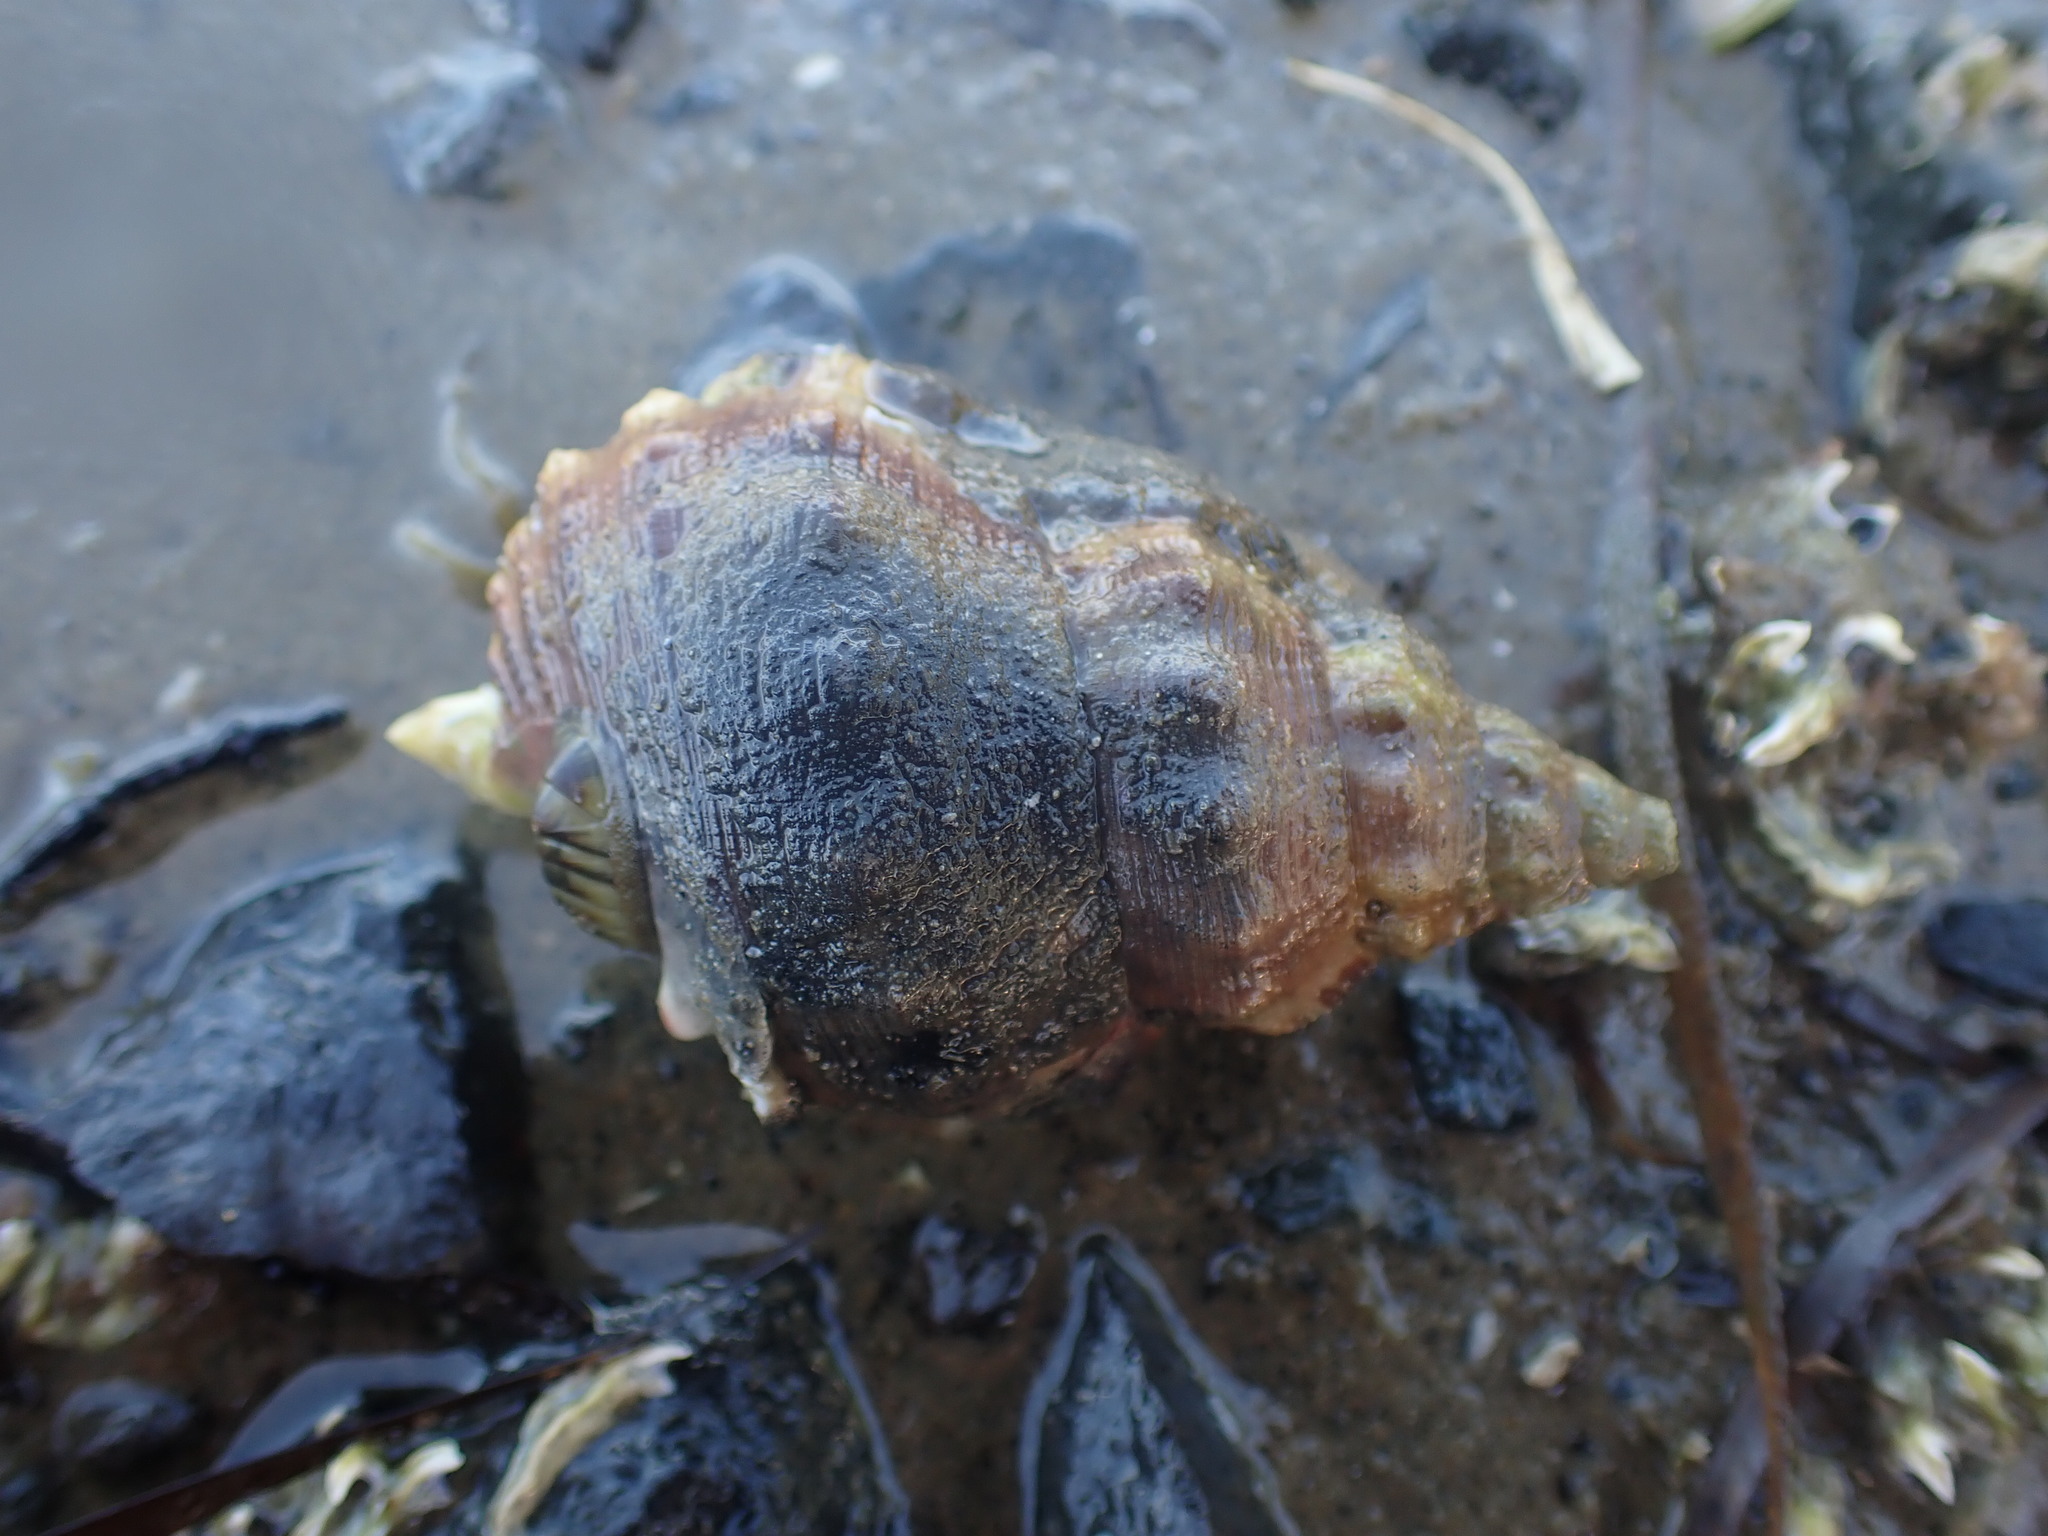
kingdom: Animalia
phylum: Mollusca
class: Gastropoda
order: Littorinimorpha
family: Ranellidae
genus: Ranella
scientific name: Ranella australasia
